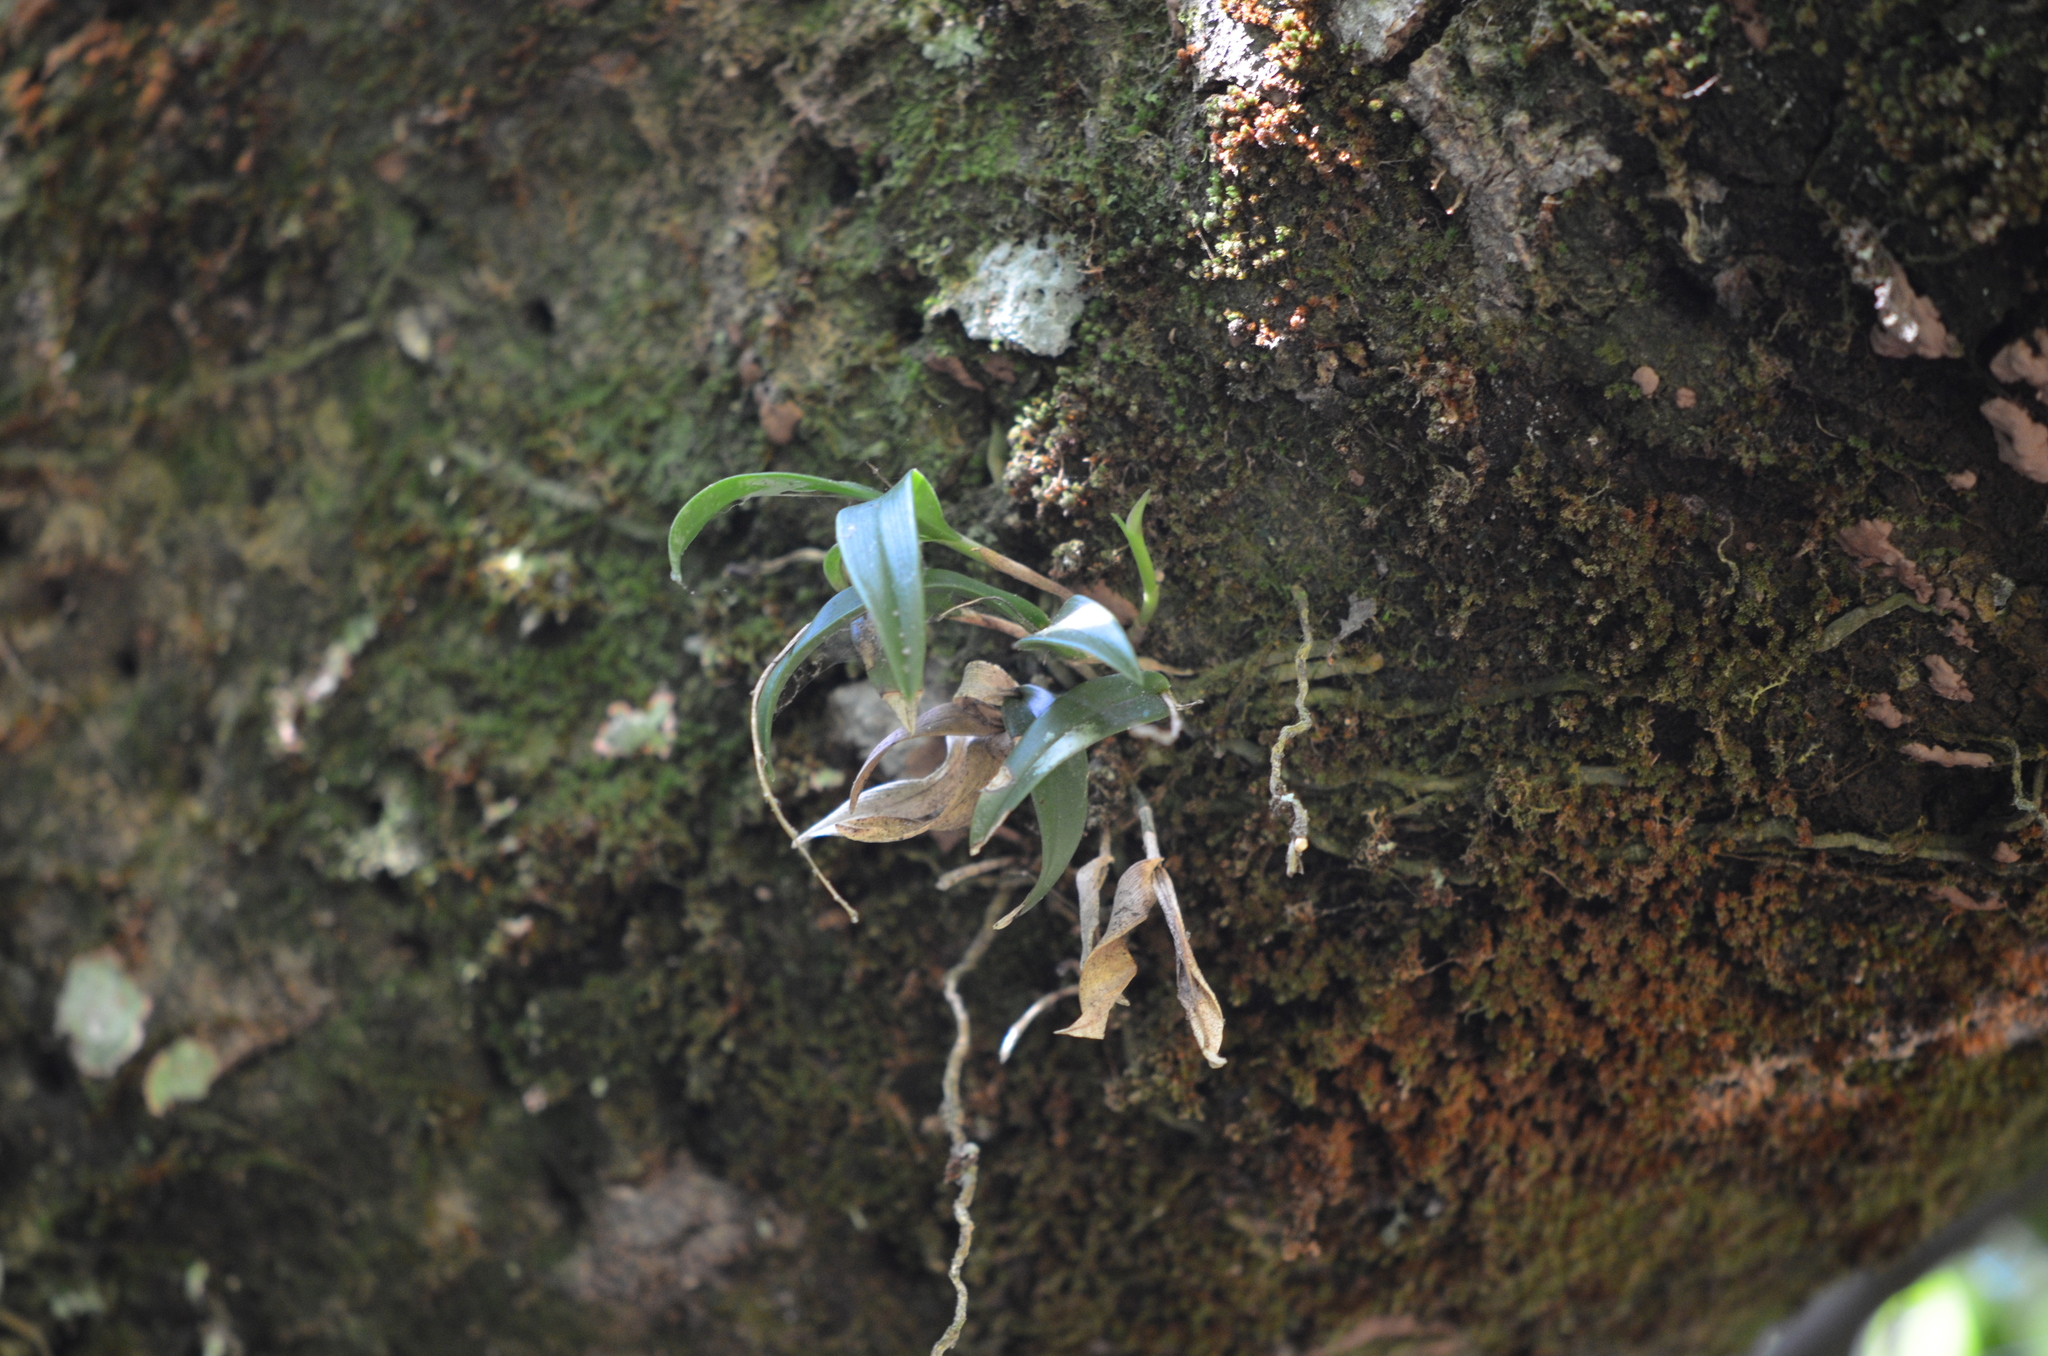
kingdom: Plantae
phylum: Tracheophyta
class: Liliopsida
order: Asparagales
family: Orchidaceae
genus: Epidendrum
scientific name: Epidendrum conopseum
